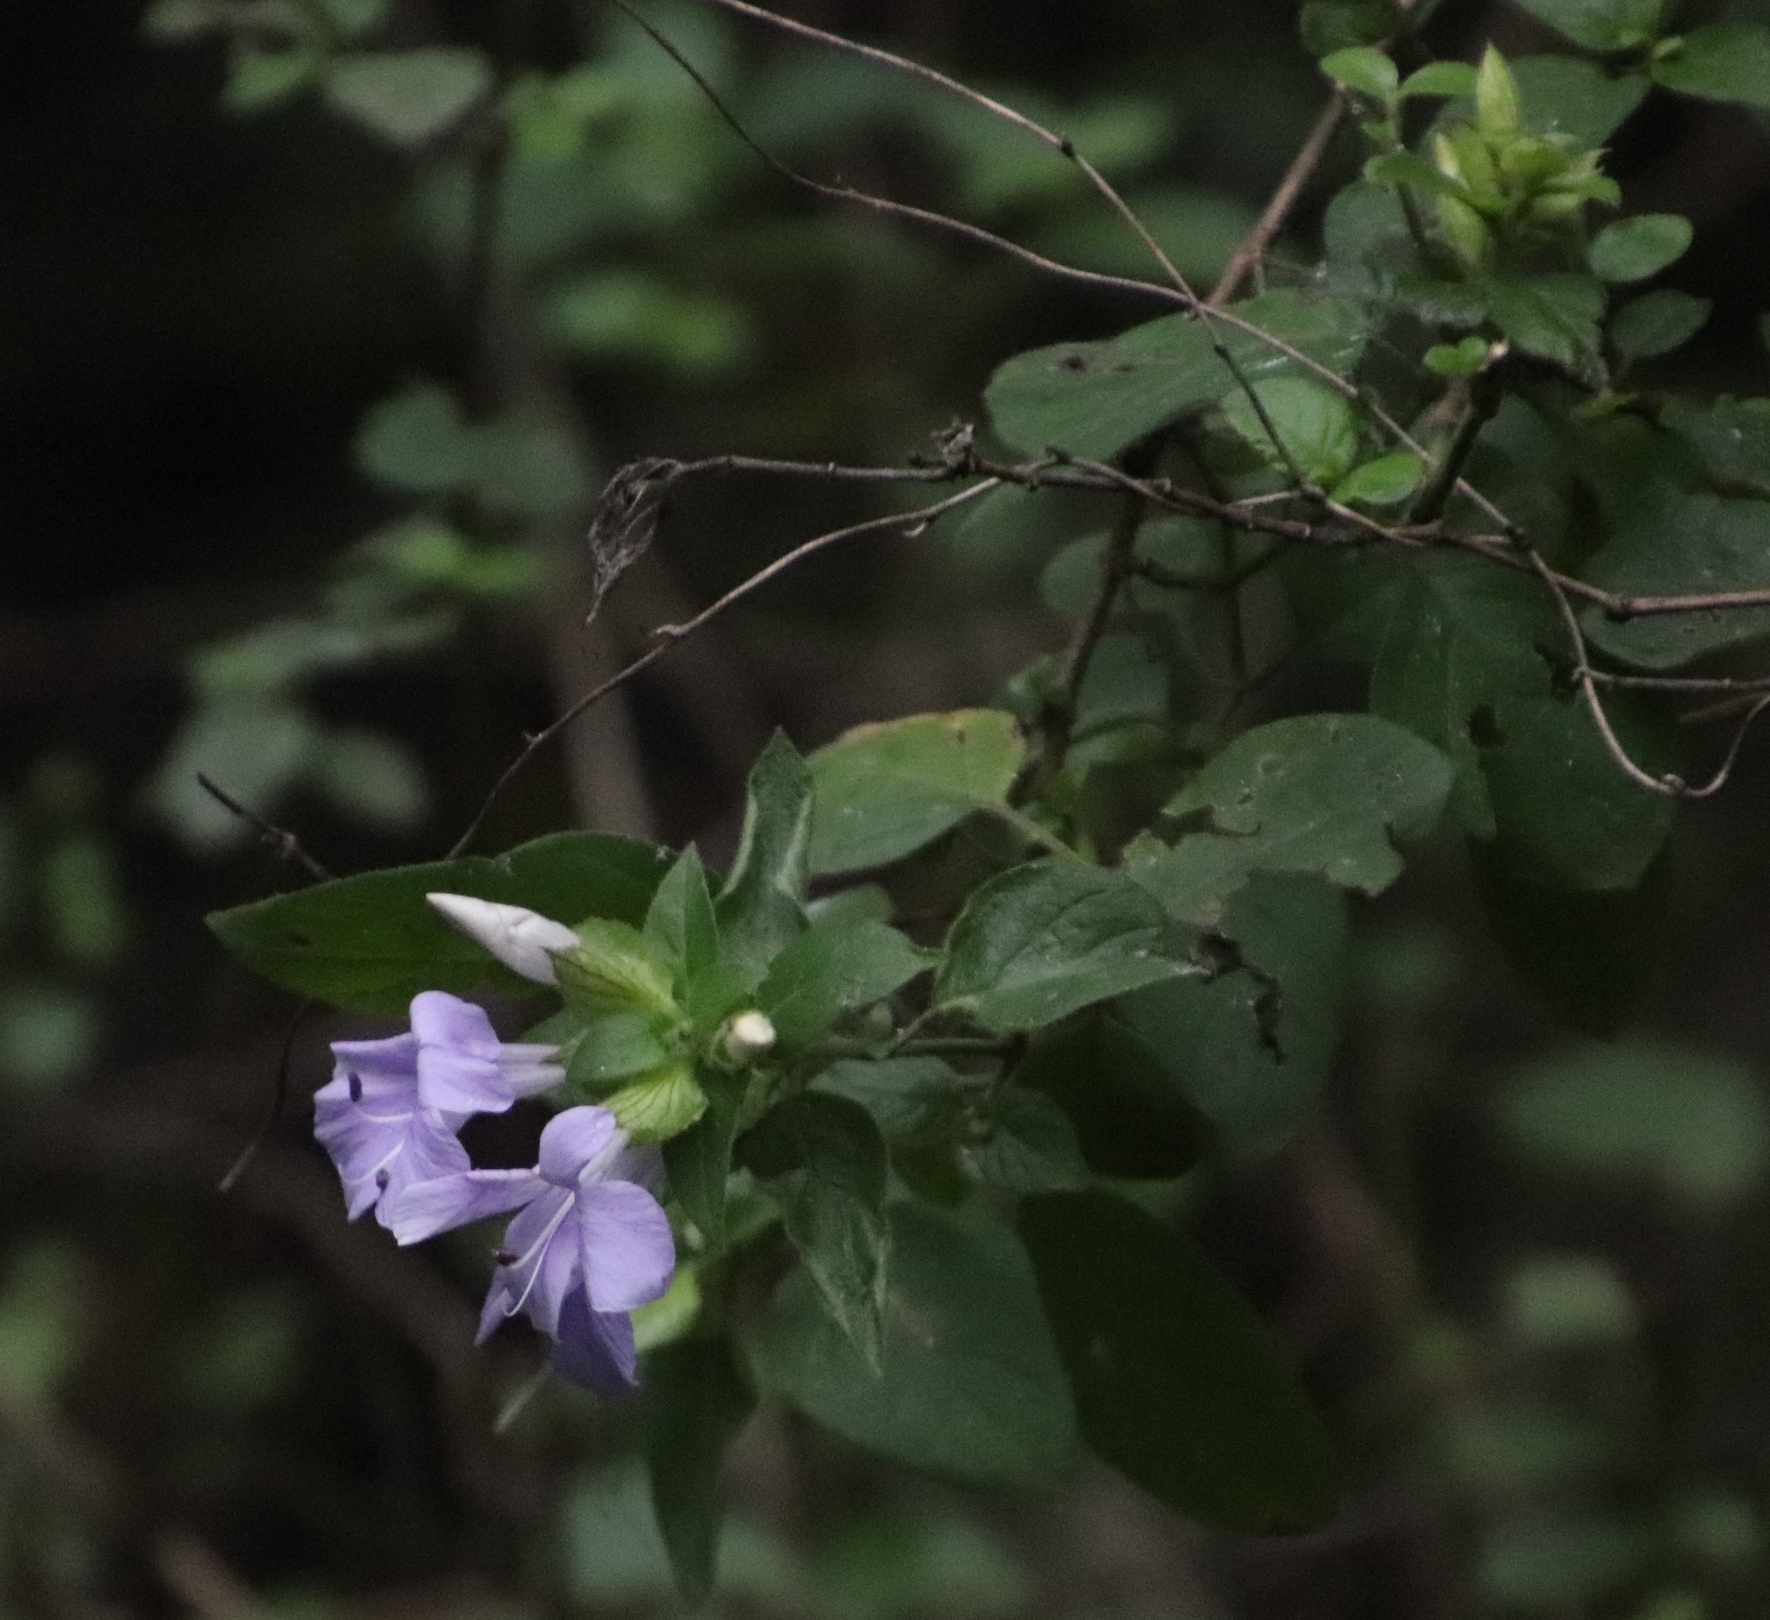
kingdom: Plantae
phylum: Tracheophyta
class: Magnoliopsida
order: Lamiales
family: Acanthaceae
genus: Barleria
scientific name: Barleria gueinzii
